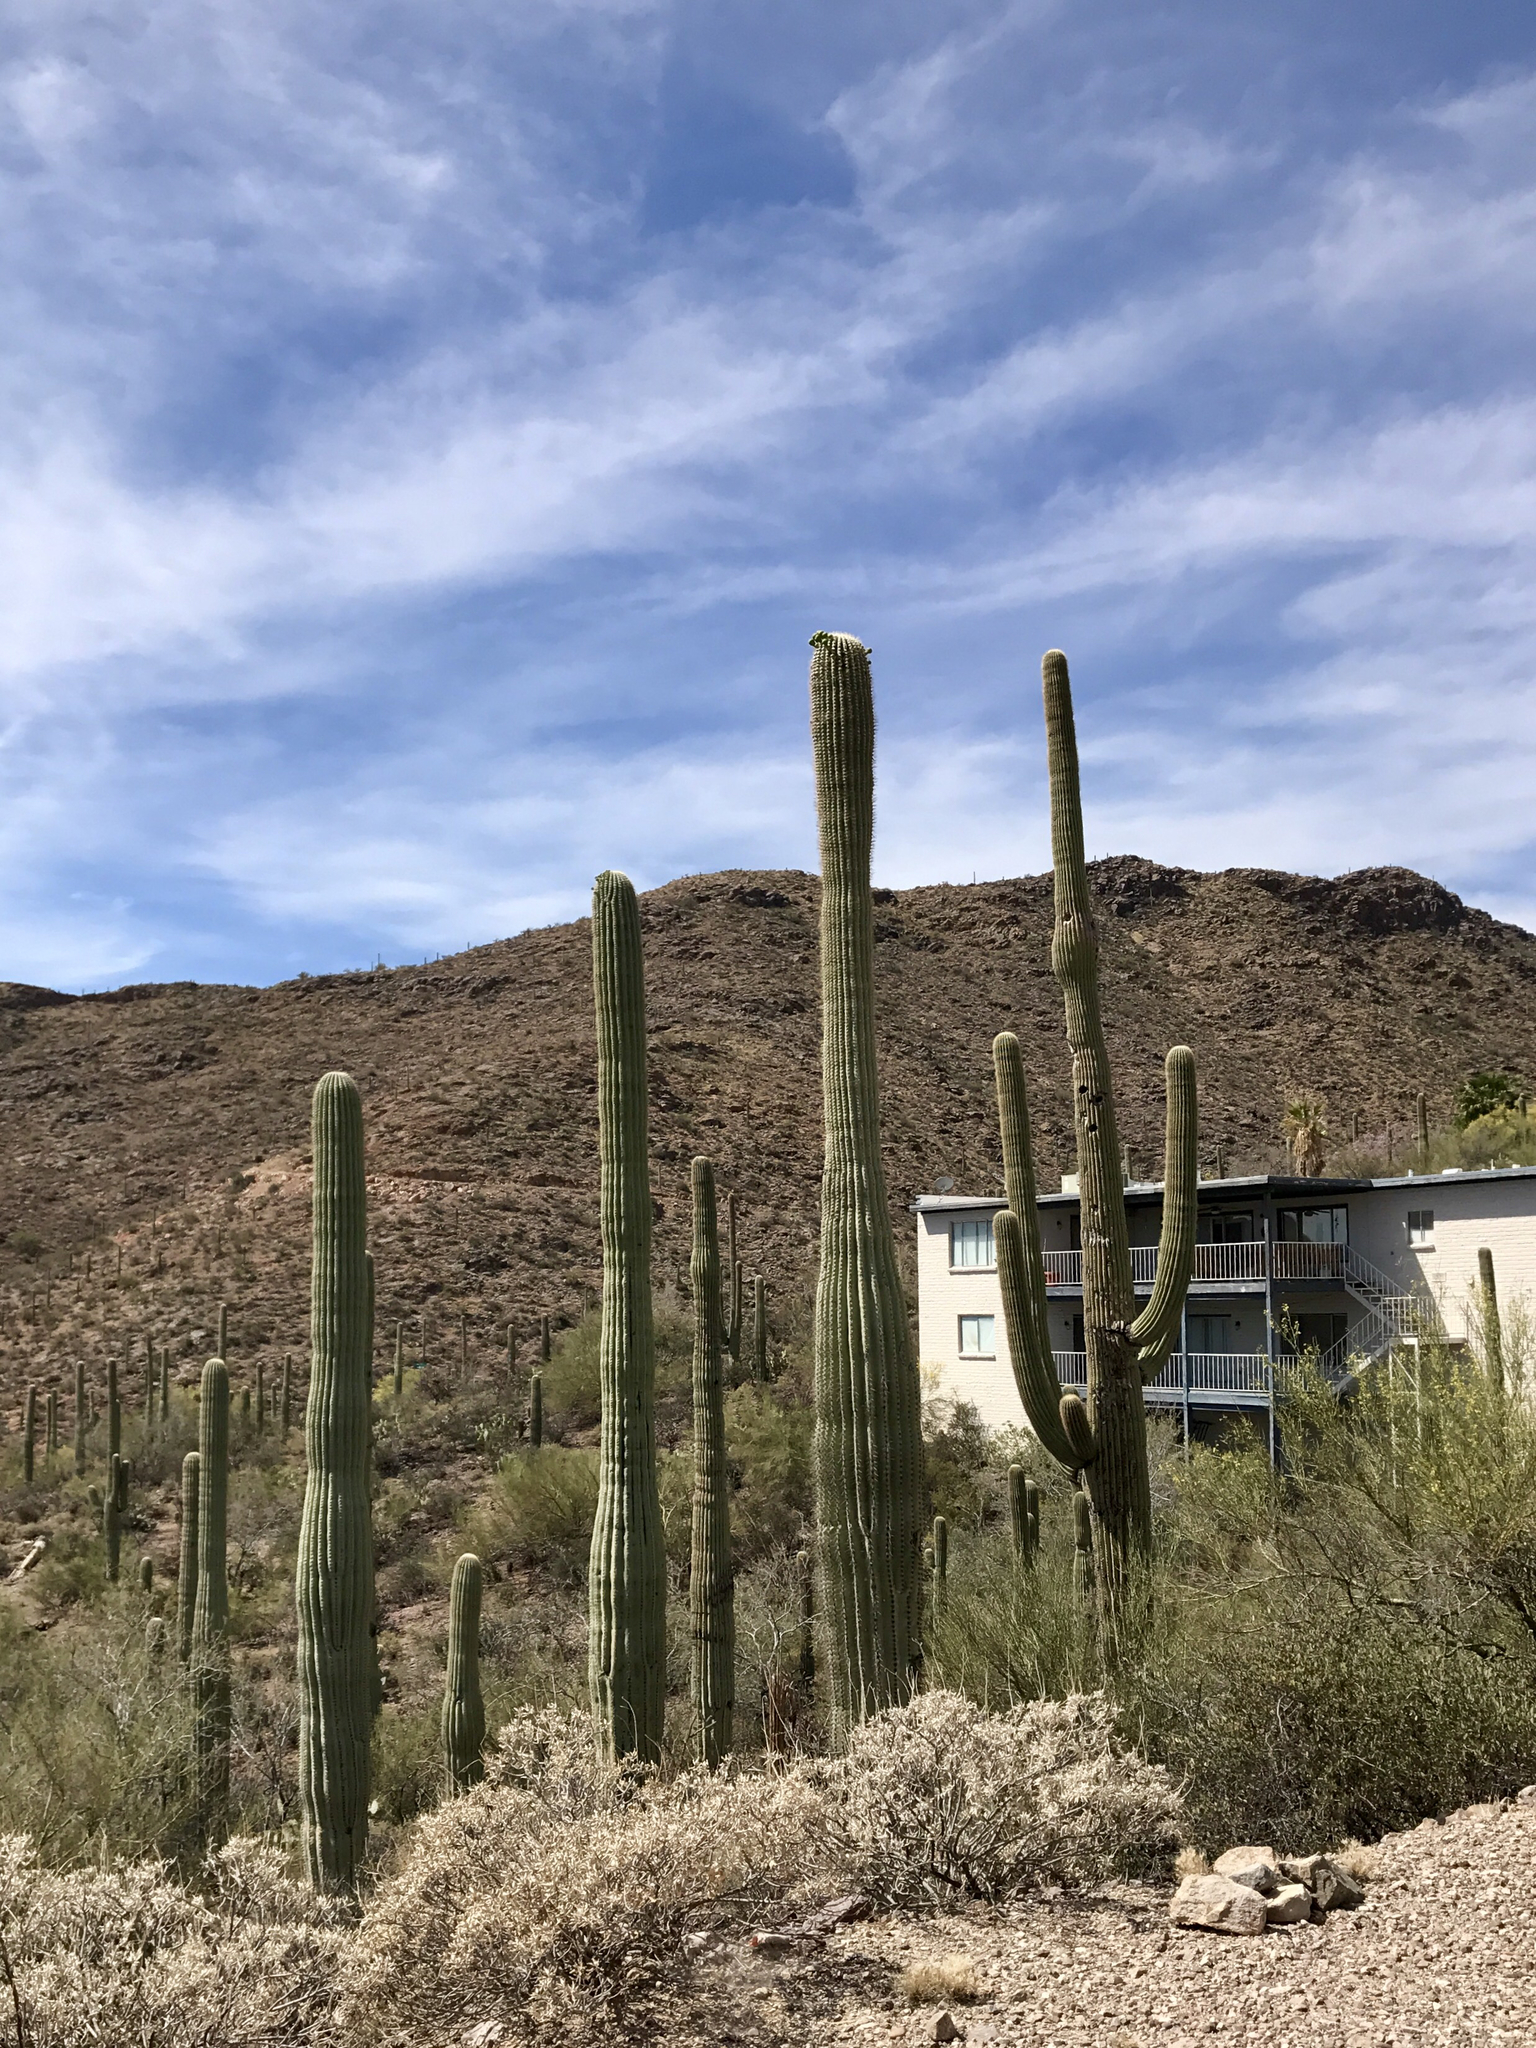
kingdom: Plantae
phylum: Tracheophyta
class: Magnoliopsida
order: Caryophyllales
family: Cactaceae
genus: Carnegiea
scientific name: Carnegiea gigantea
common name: Saguaro
